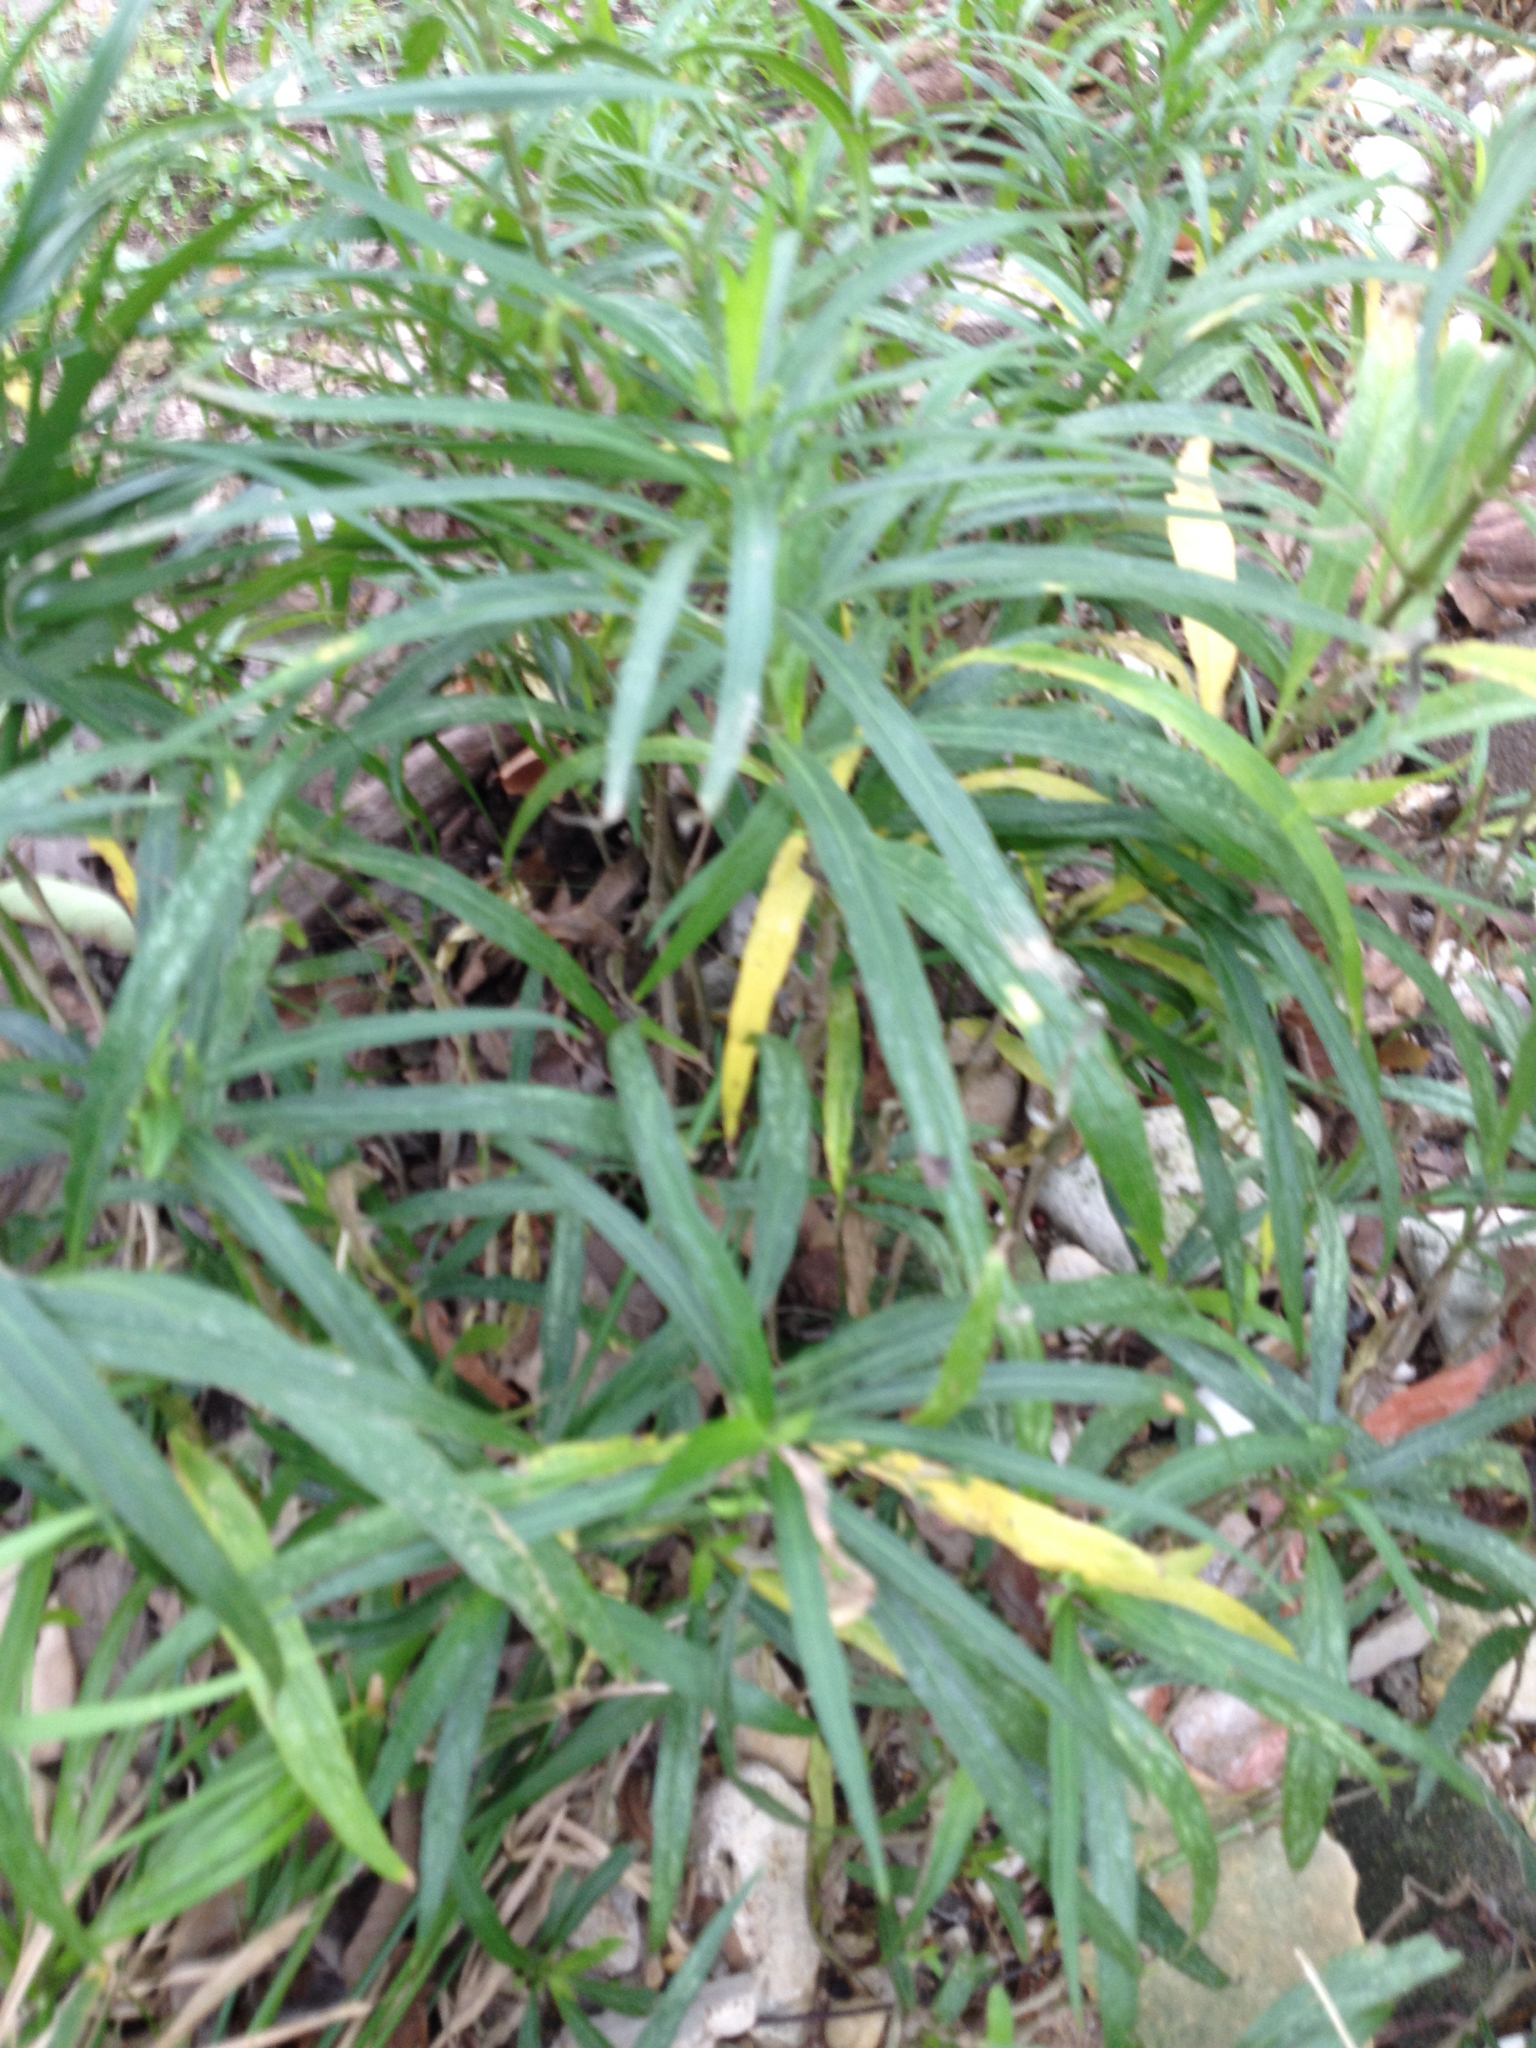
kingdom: Plantae
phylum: Tracheophyta
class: Magnoliopsida
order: Lamiales
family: Acanthaceae
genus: Ruellia
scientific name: Ruellia simplex
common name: Softseed wild petunia
